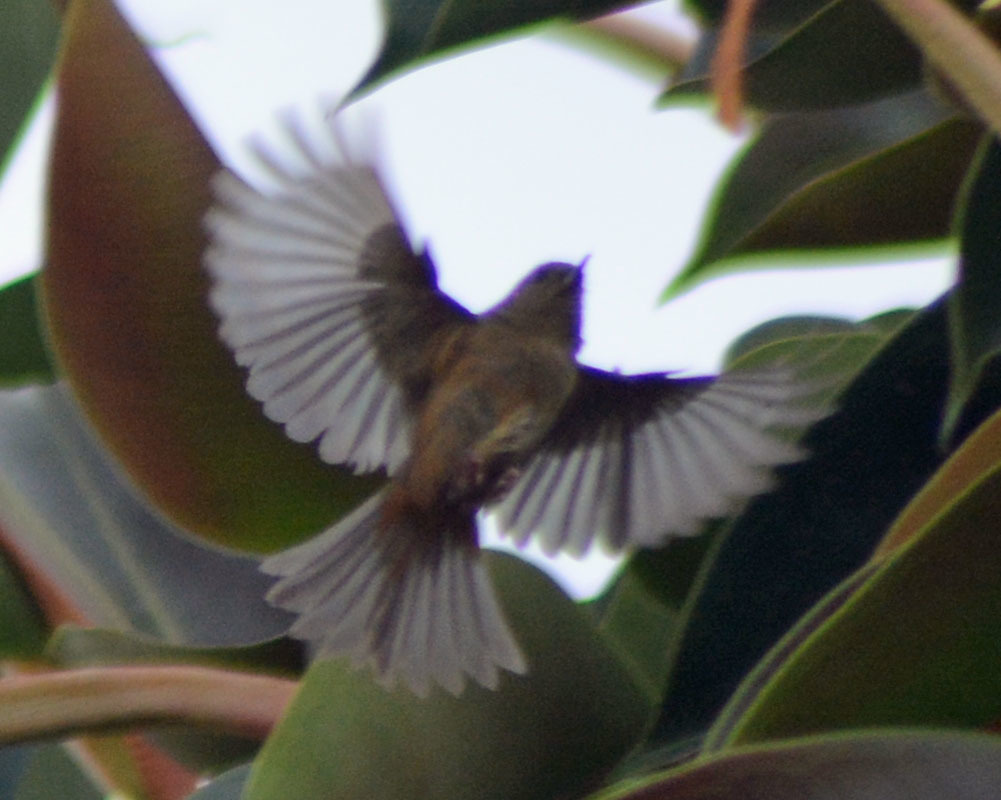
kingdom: Animalia
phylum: Chordata
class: Aves
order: Passeriformes
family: Thraupidae
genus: Diglossa
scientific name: Diglossa baritula
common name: Cinnamon-bellied flowerpiercer
